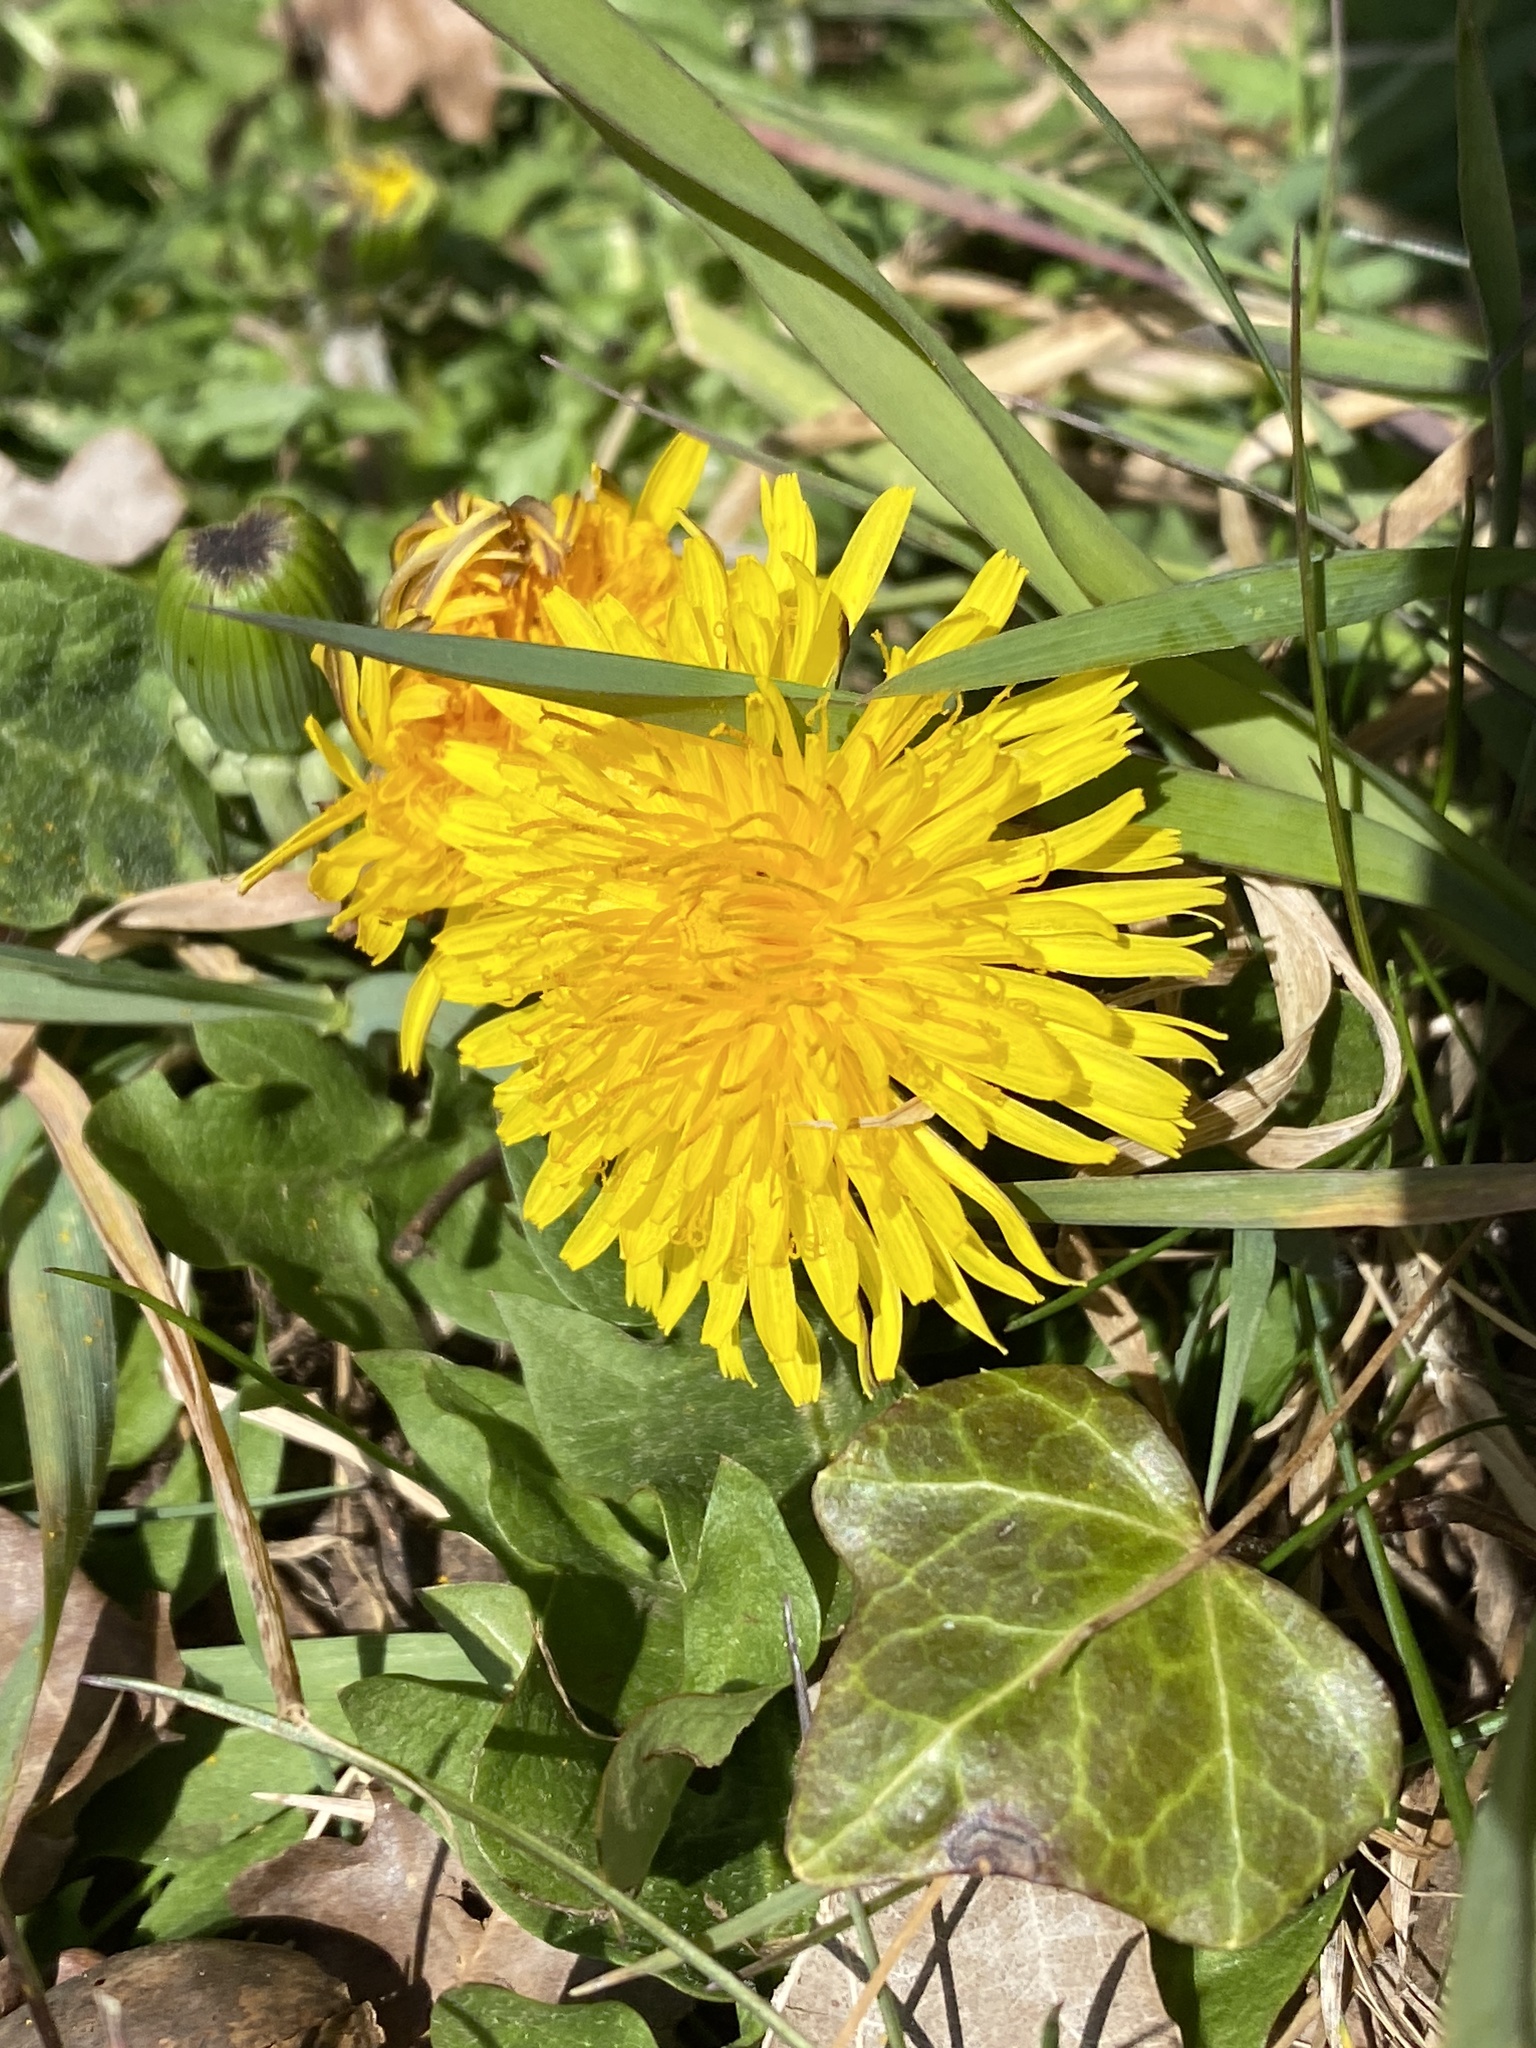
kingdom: Plantae
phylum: Tracheophyta
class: Magnoliopsida
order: Asterales
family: Asteraceae
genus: Taraxacum
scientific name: Taraxacum officinale
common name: Common dandelion
